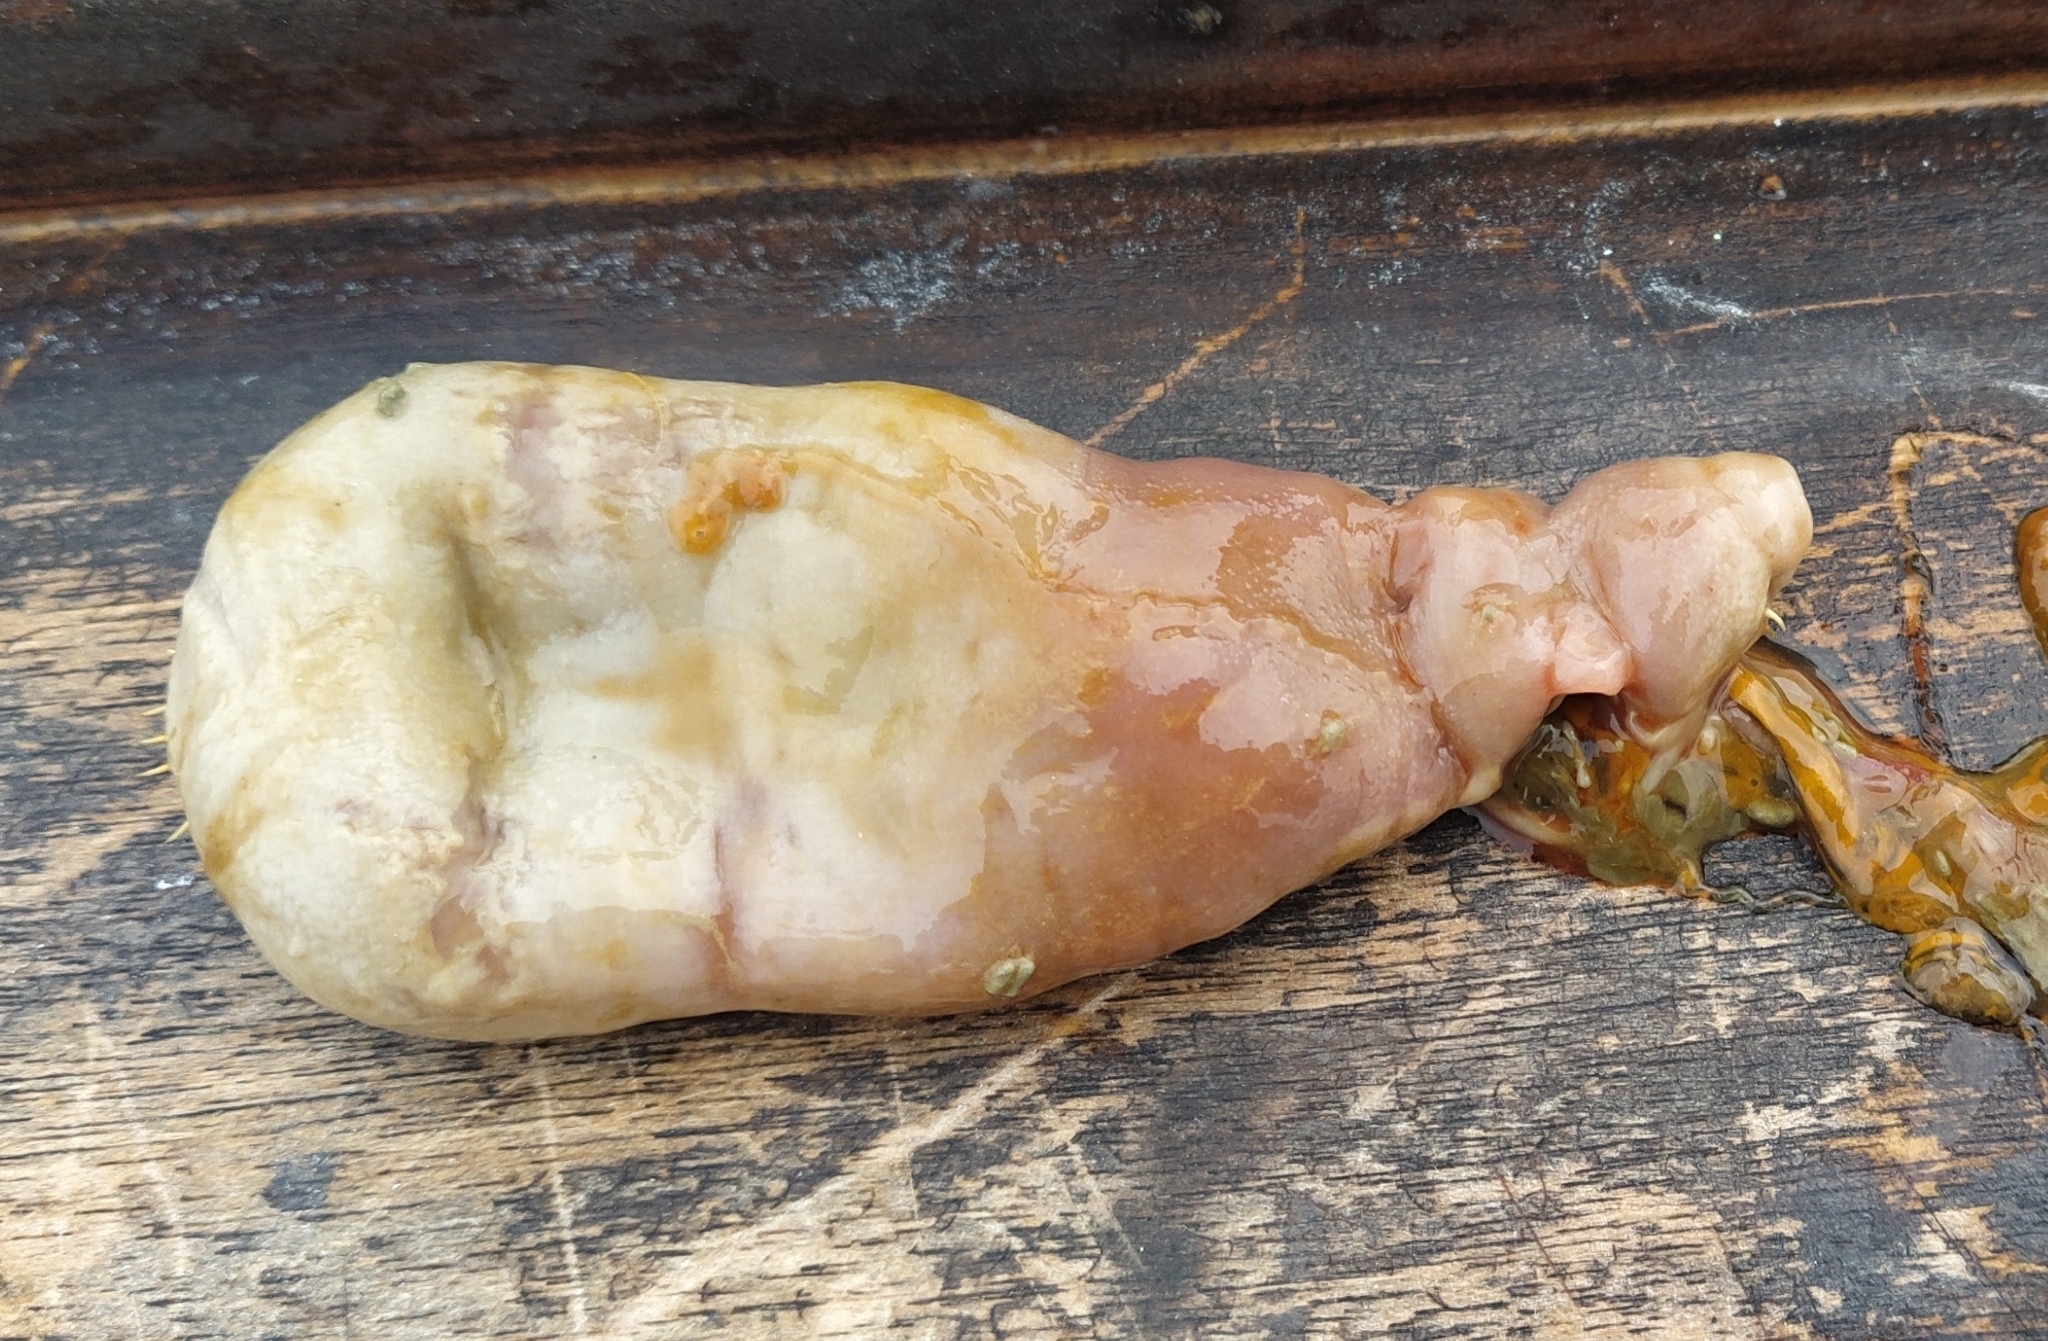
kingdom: Animalia
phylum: Annelida
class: Polychaeta
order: Echiuroidea
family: Urechidae
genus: Urechis
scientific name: Urechis novaezealandiae
